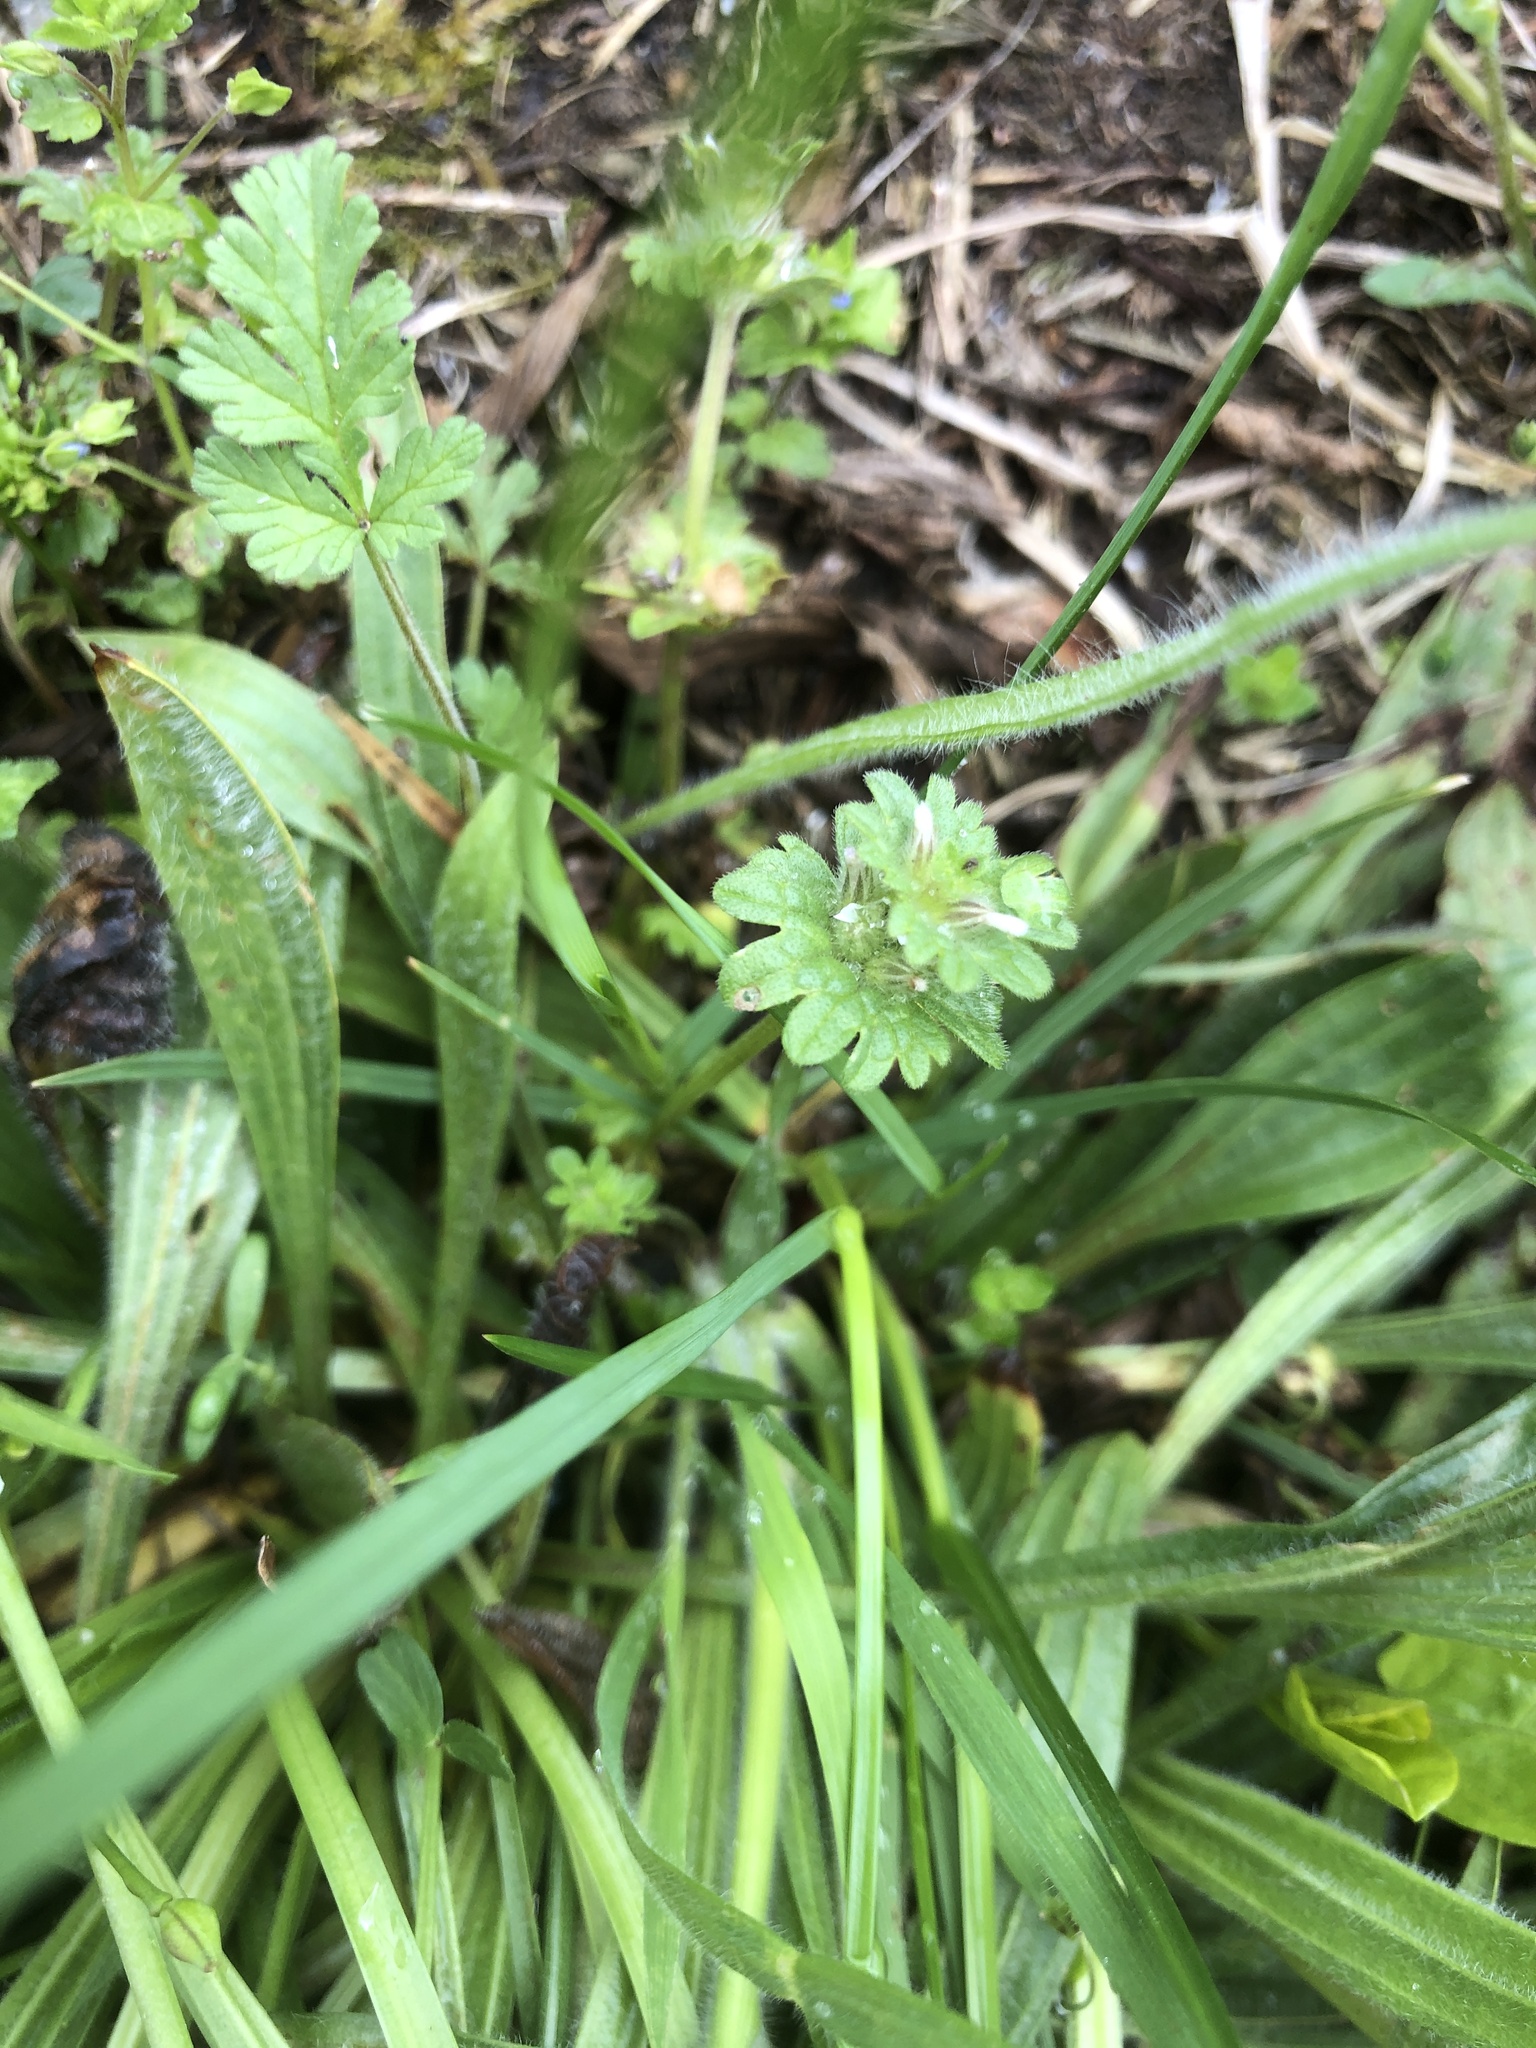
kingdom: Plantae
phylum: Tracheophyta
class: Magnoliopsida
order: Lamiales
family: Lamiaceae
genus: Lamium
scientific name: Lamium amplexicaule
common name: Henbit dead-nettle
